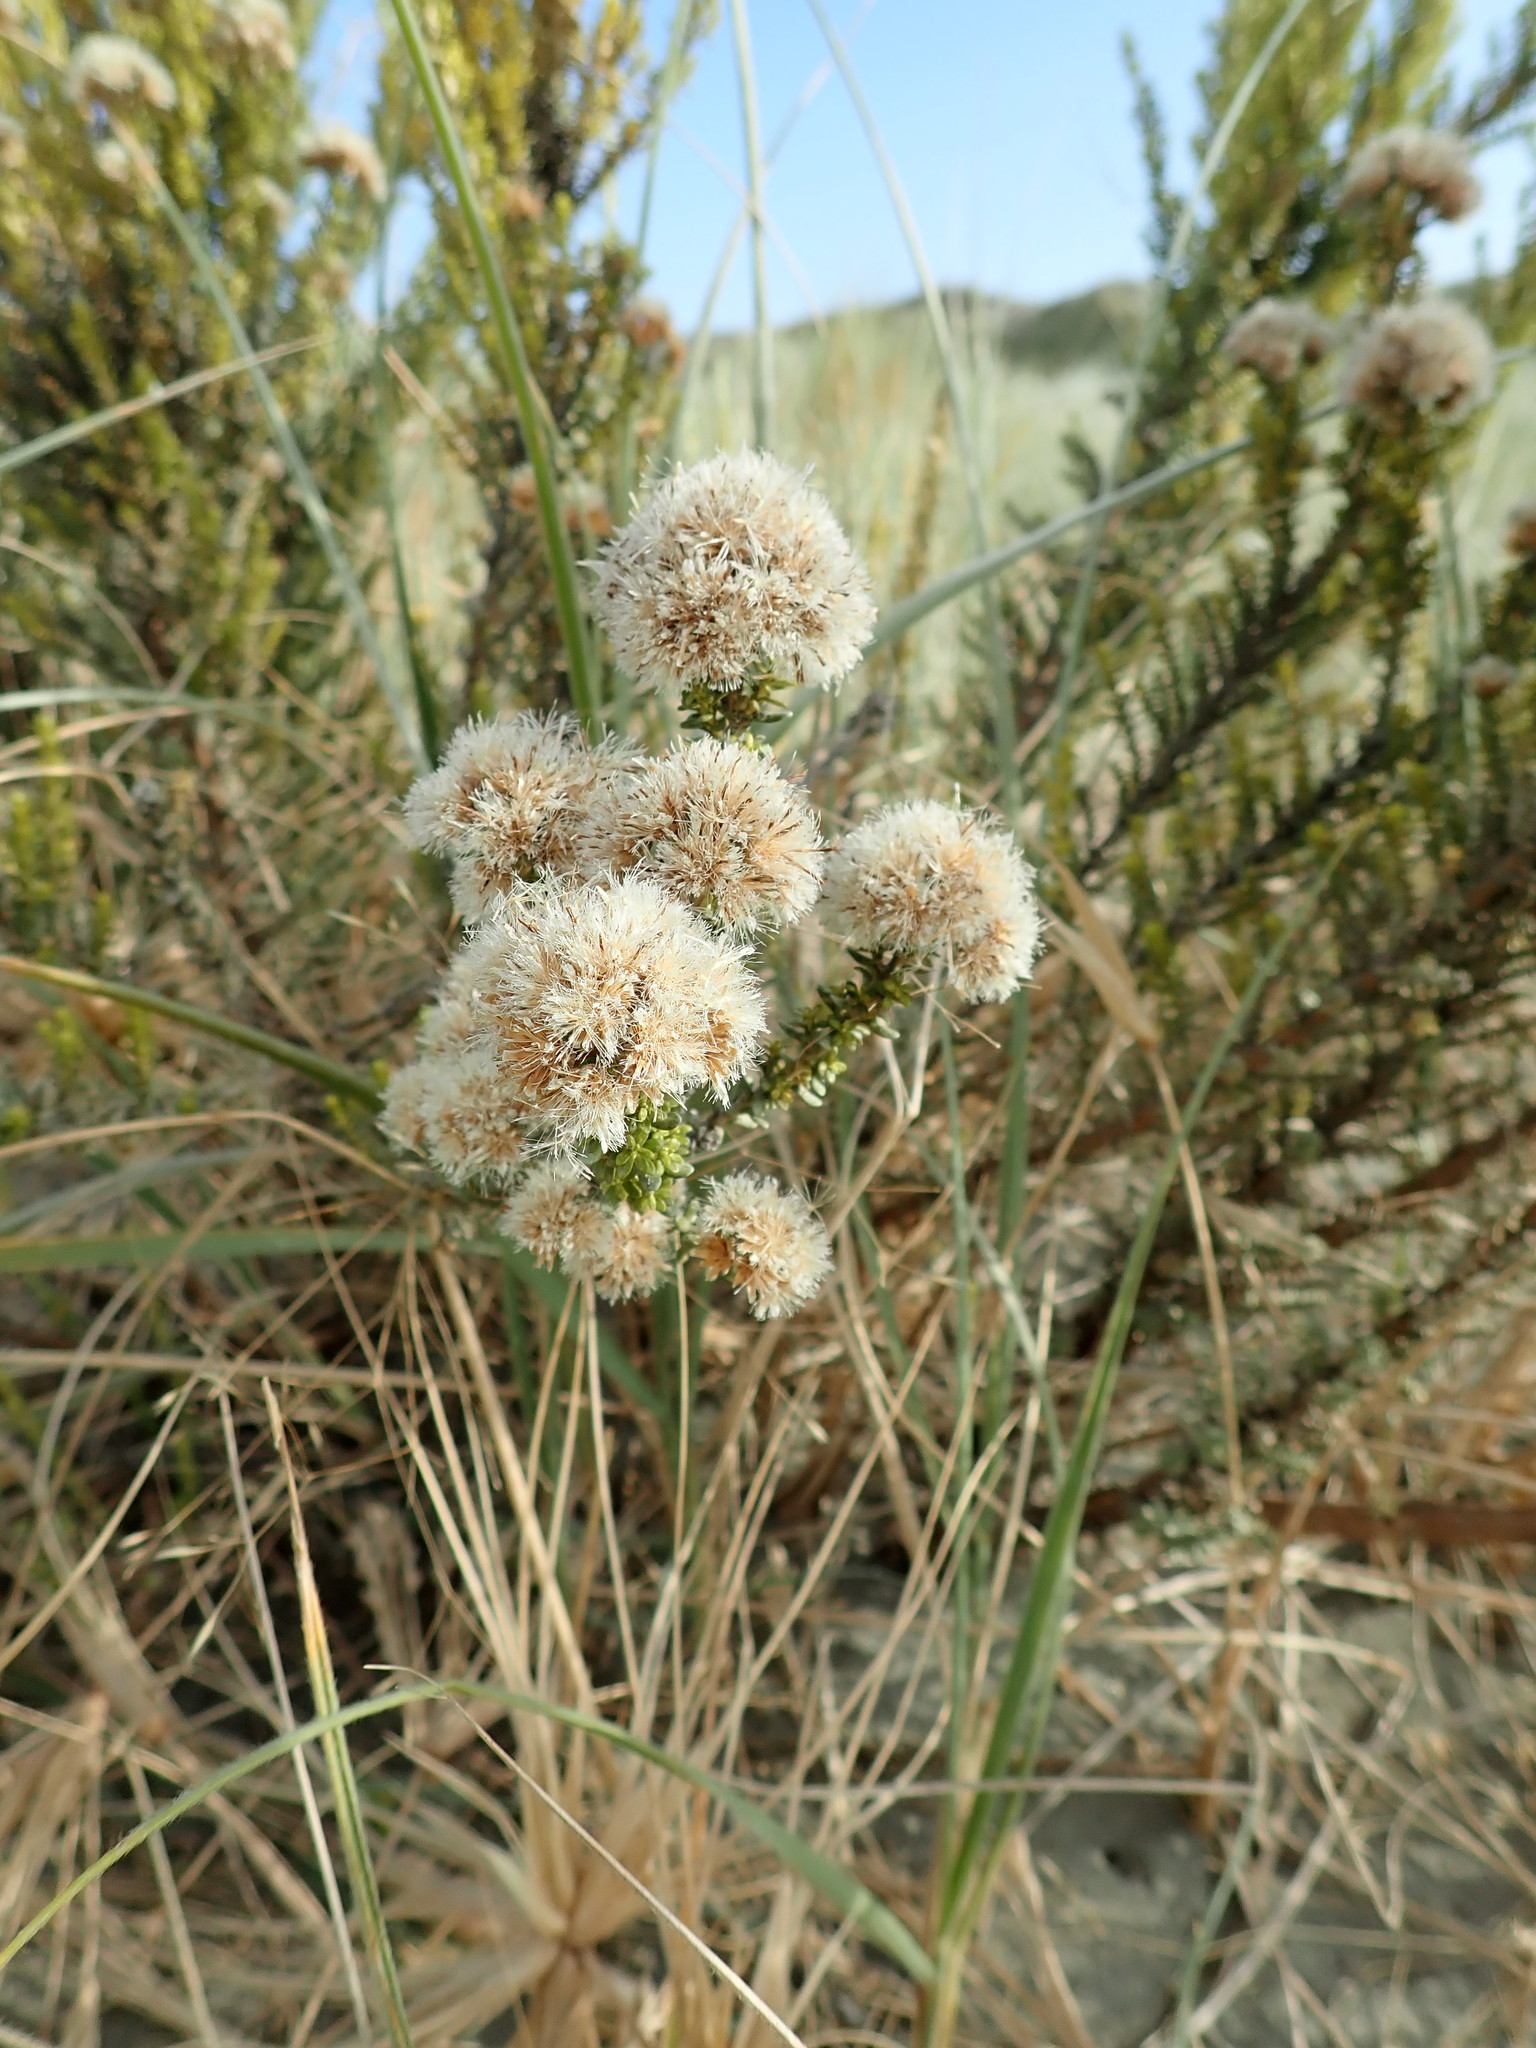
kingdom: Plantae
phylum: Tracheophyta
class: Magnoliopsida
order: Asterales
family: Asteraceae
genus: Ozothamnus
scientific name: Ozothamnus leptophyllus
